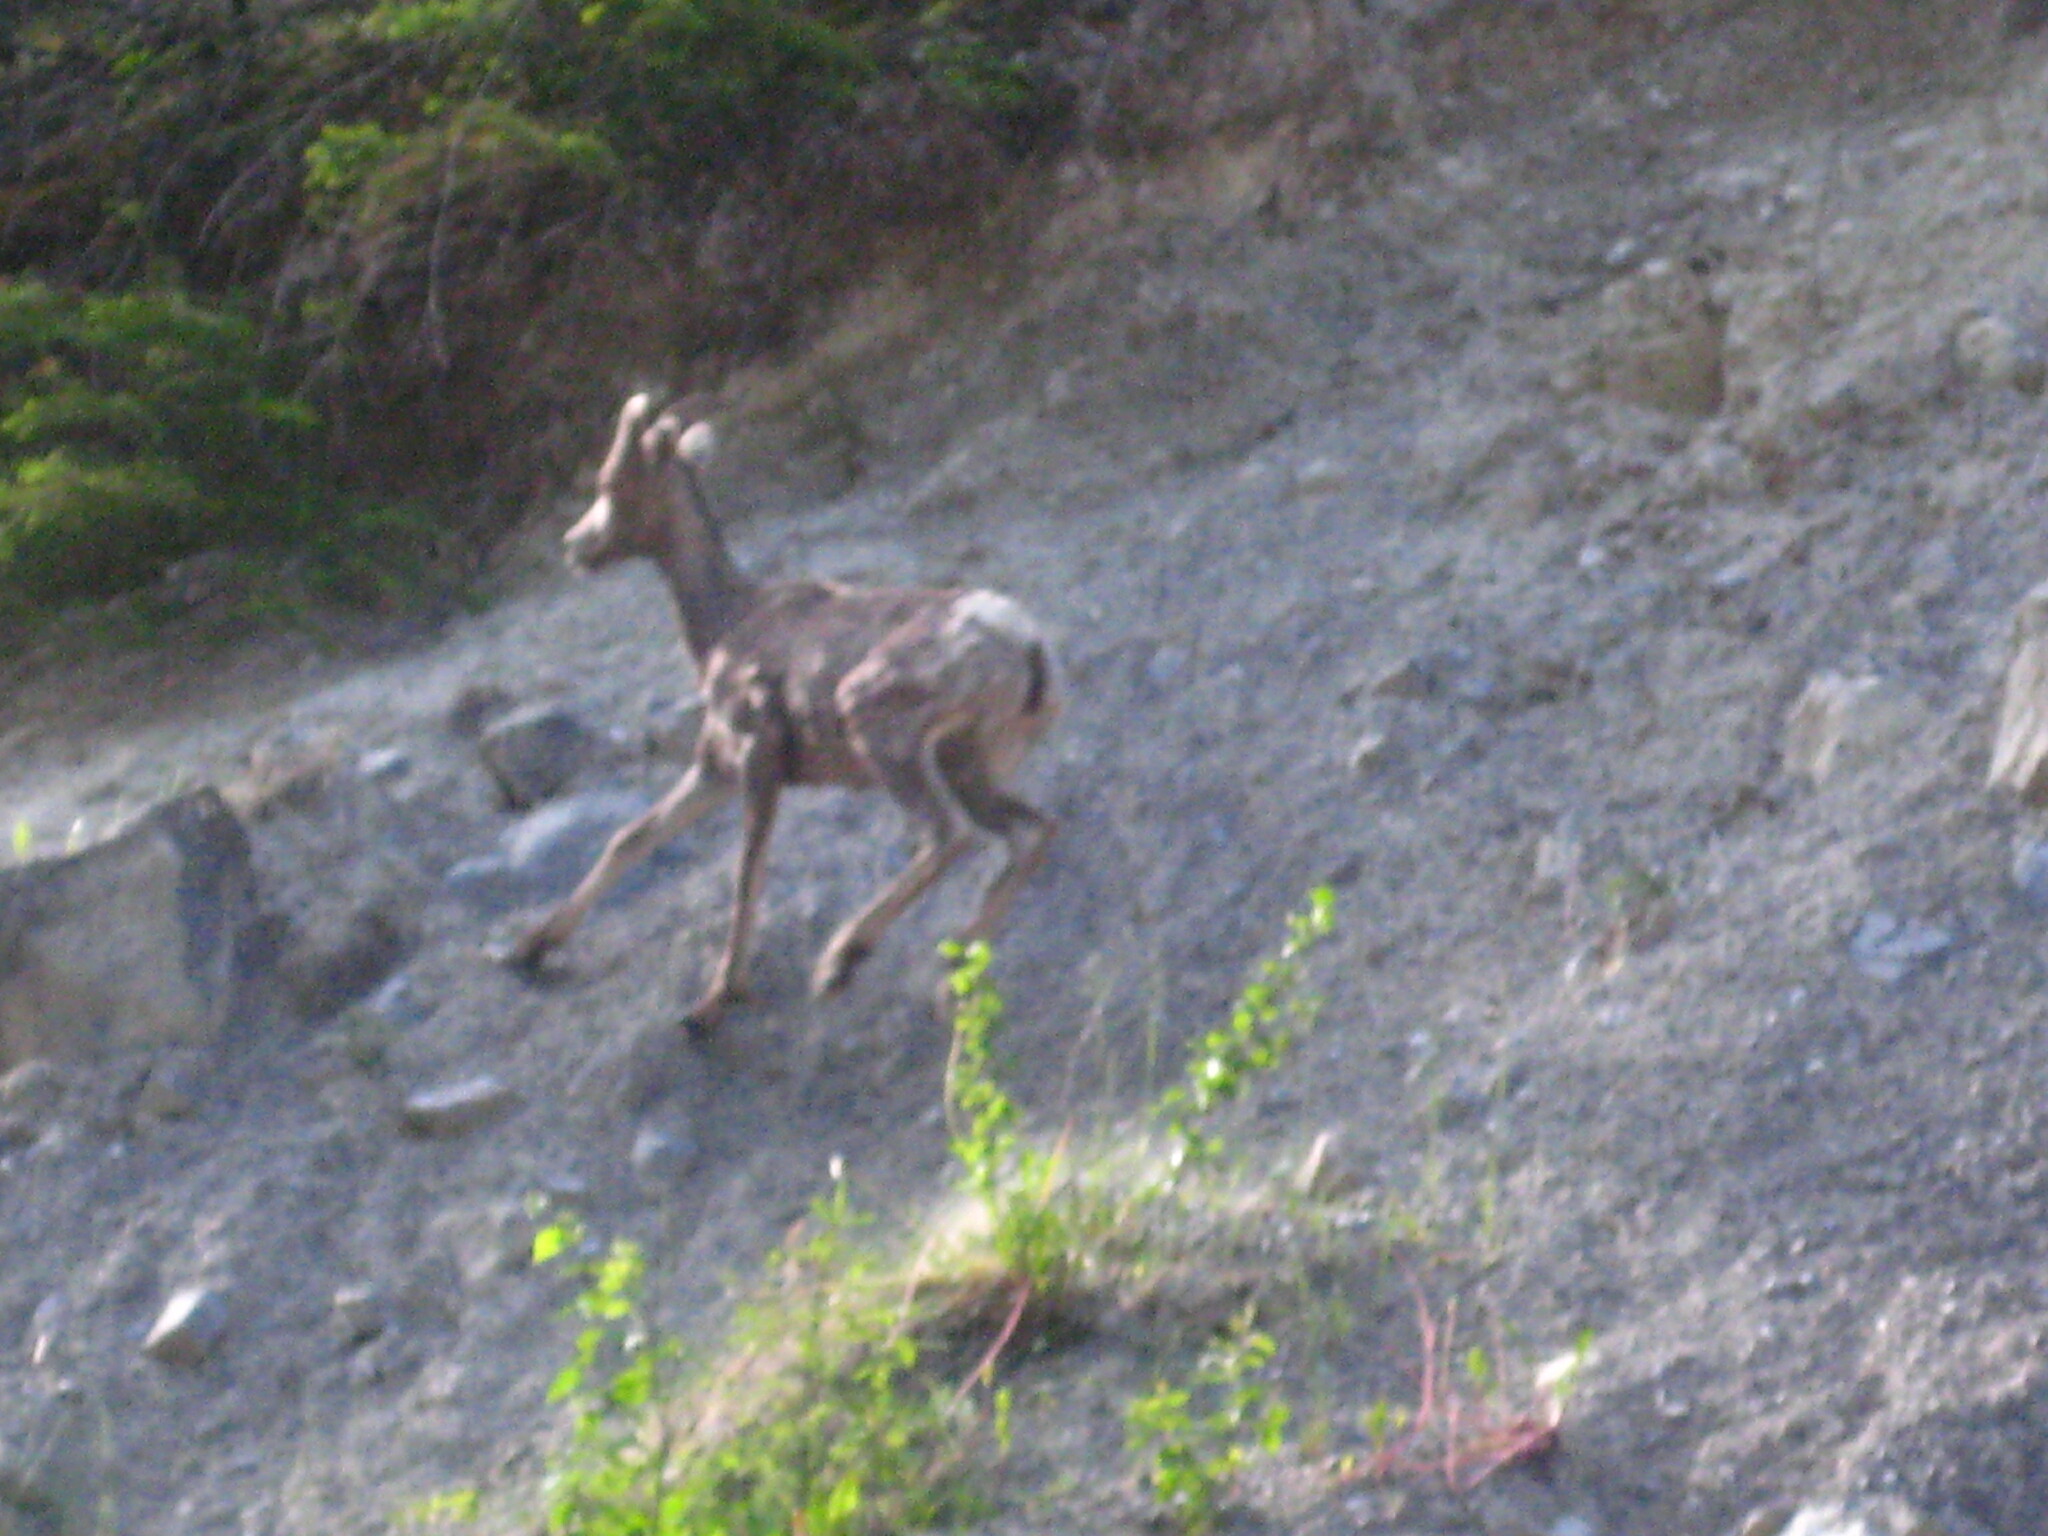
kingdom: Animalia
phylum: Chordata
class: Mammalia
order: Artiodactyla
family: Bovidae
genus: Ovis
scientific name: Ovis canadensis
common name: Bighorn sheep
